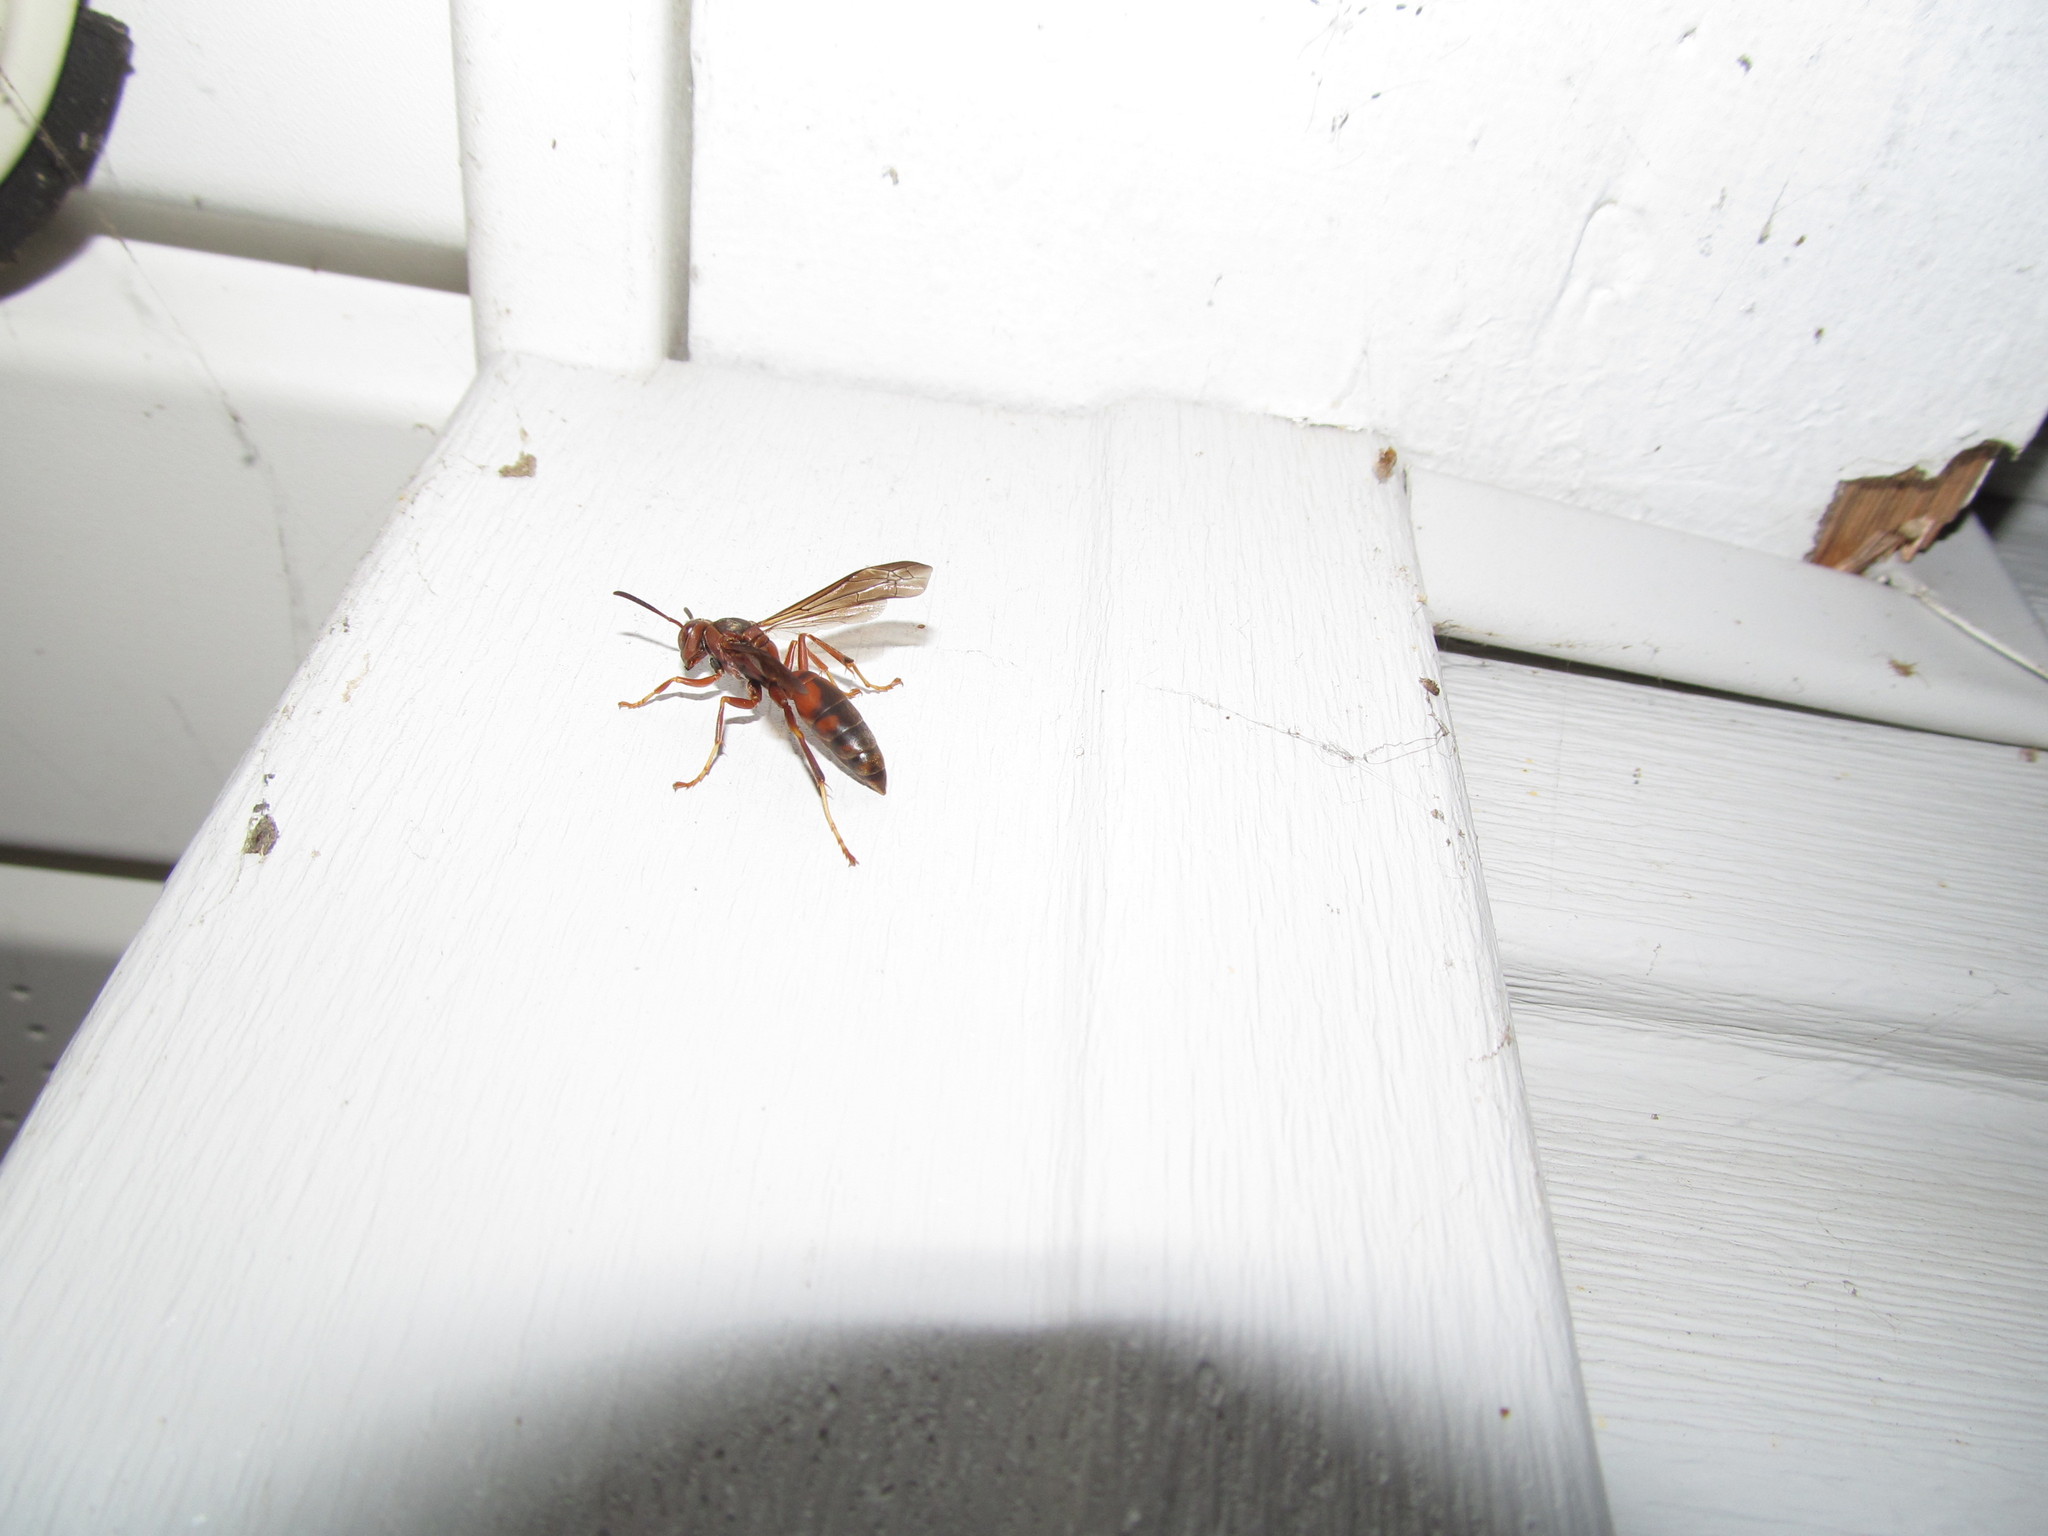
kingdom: Animalia
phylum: Arthropoda
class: Insecta
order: Hymenoptera
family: Eumenidae
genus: Polistes
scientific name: Polistes fuscatus
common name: Dark paper wasp
